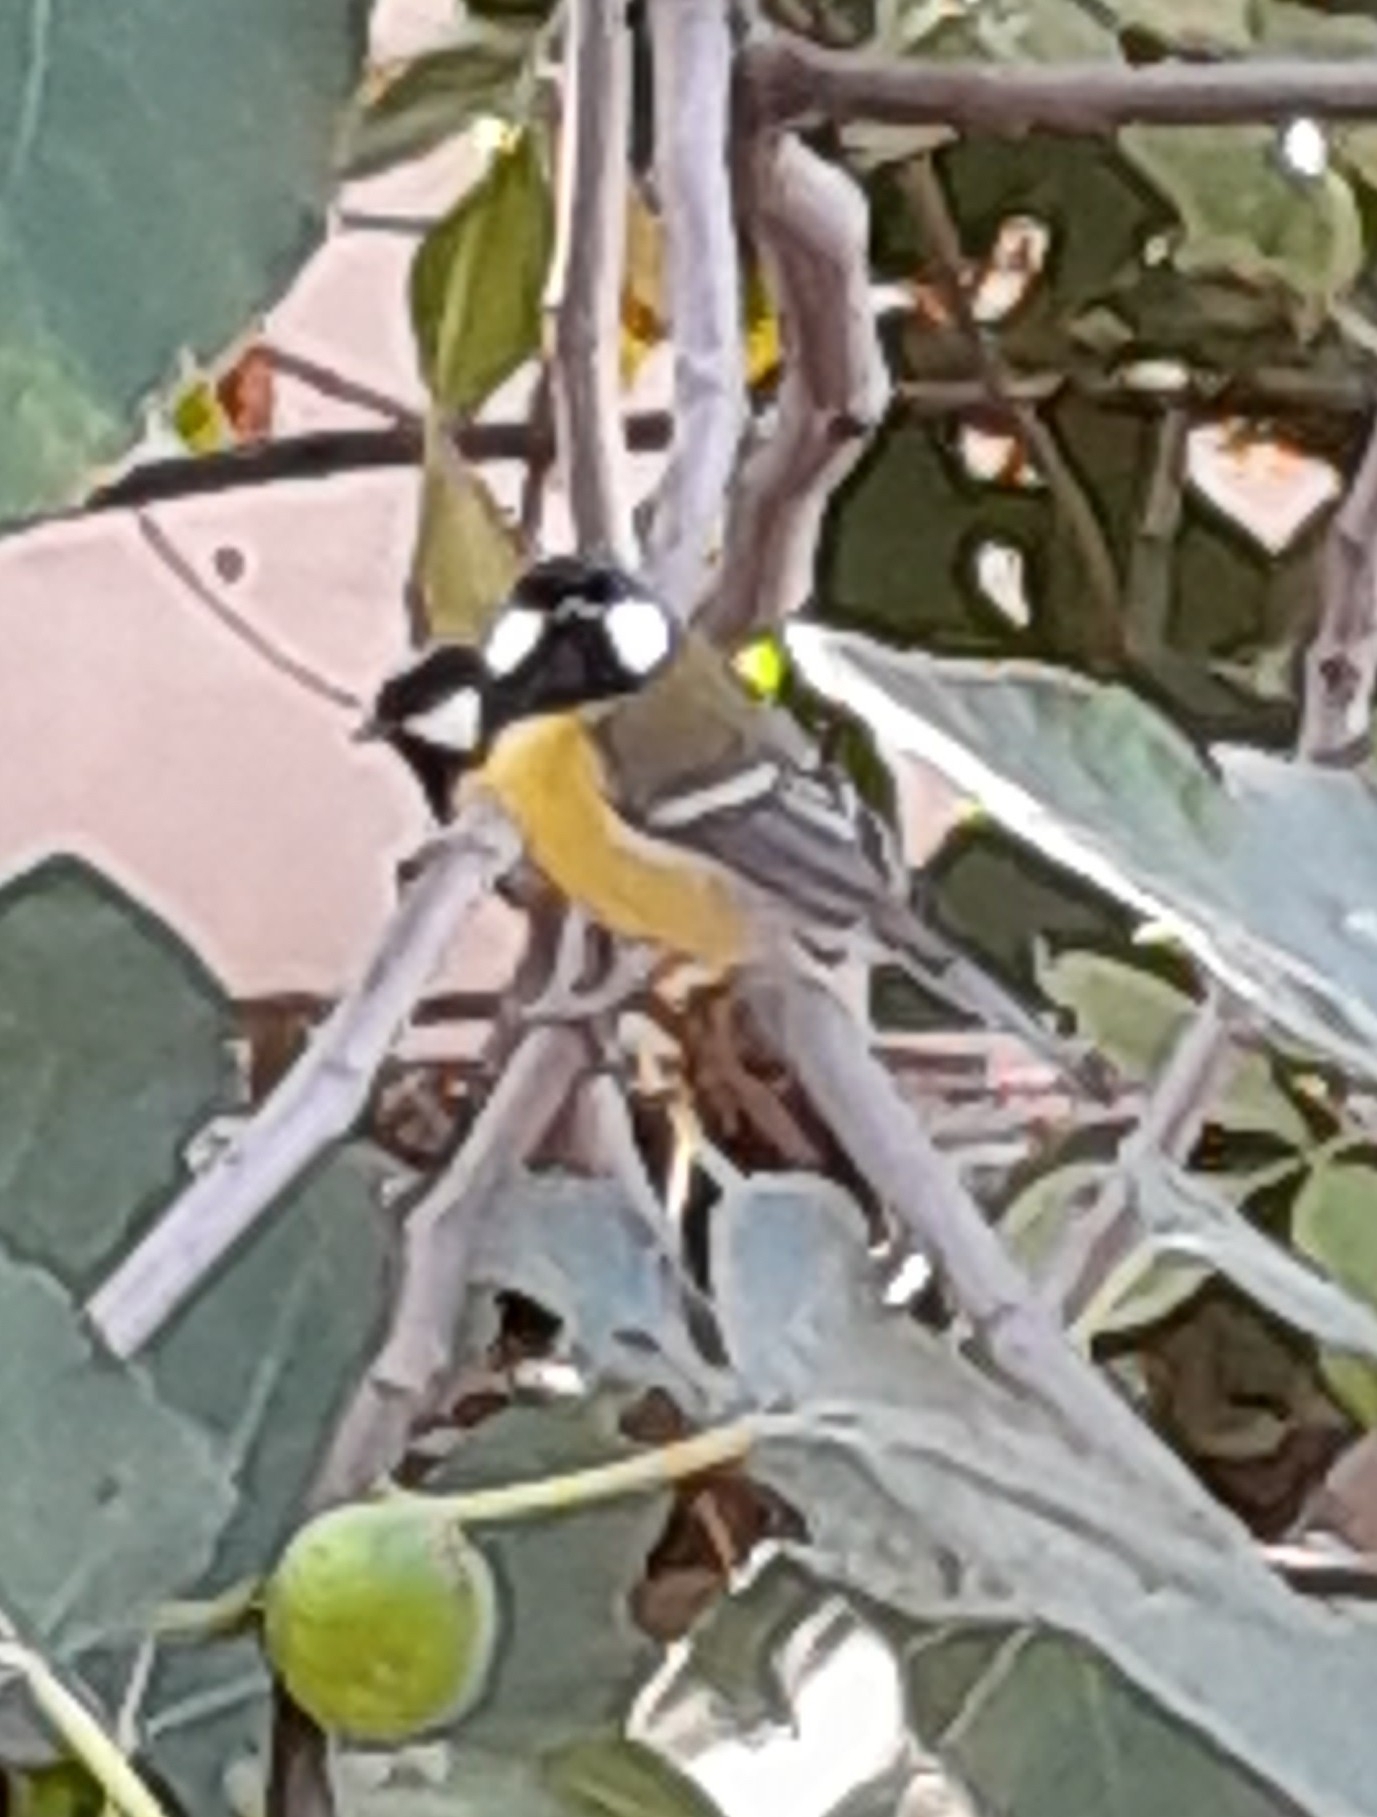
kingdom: Animalia
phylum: Chordata
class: Aves
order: Passeriformes
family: Paridae
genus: Parus
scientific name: Parus major
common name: Great tit
